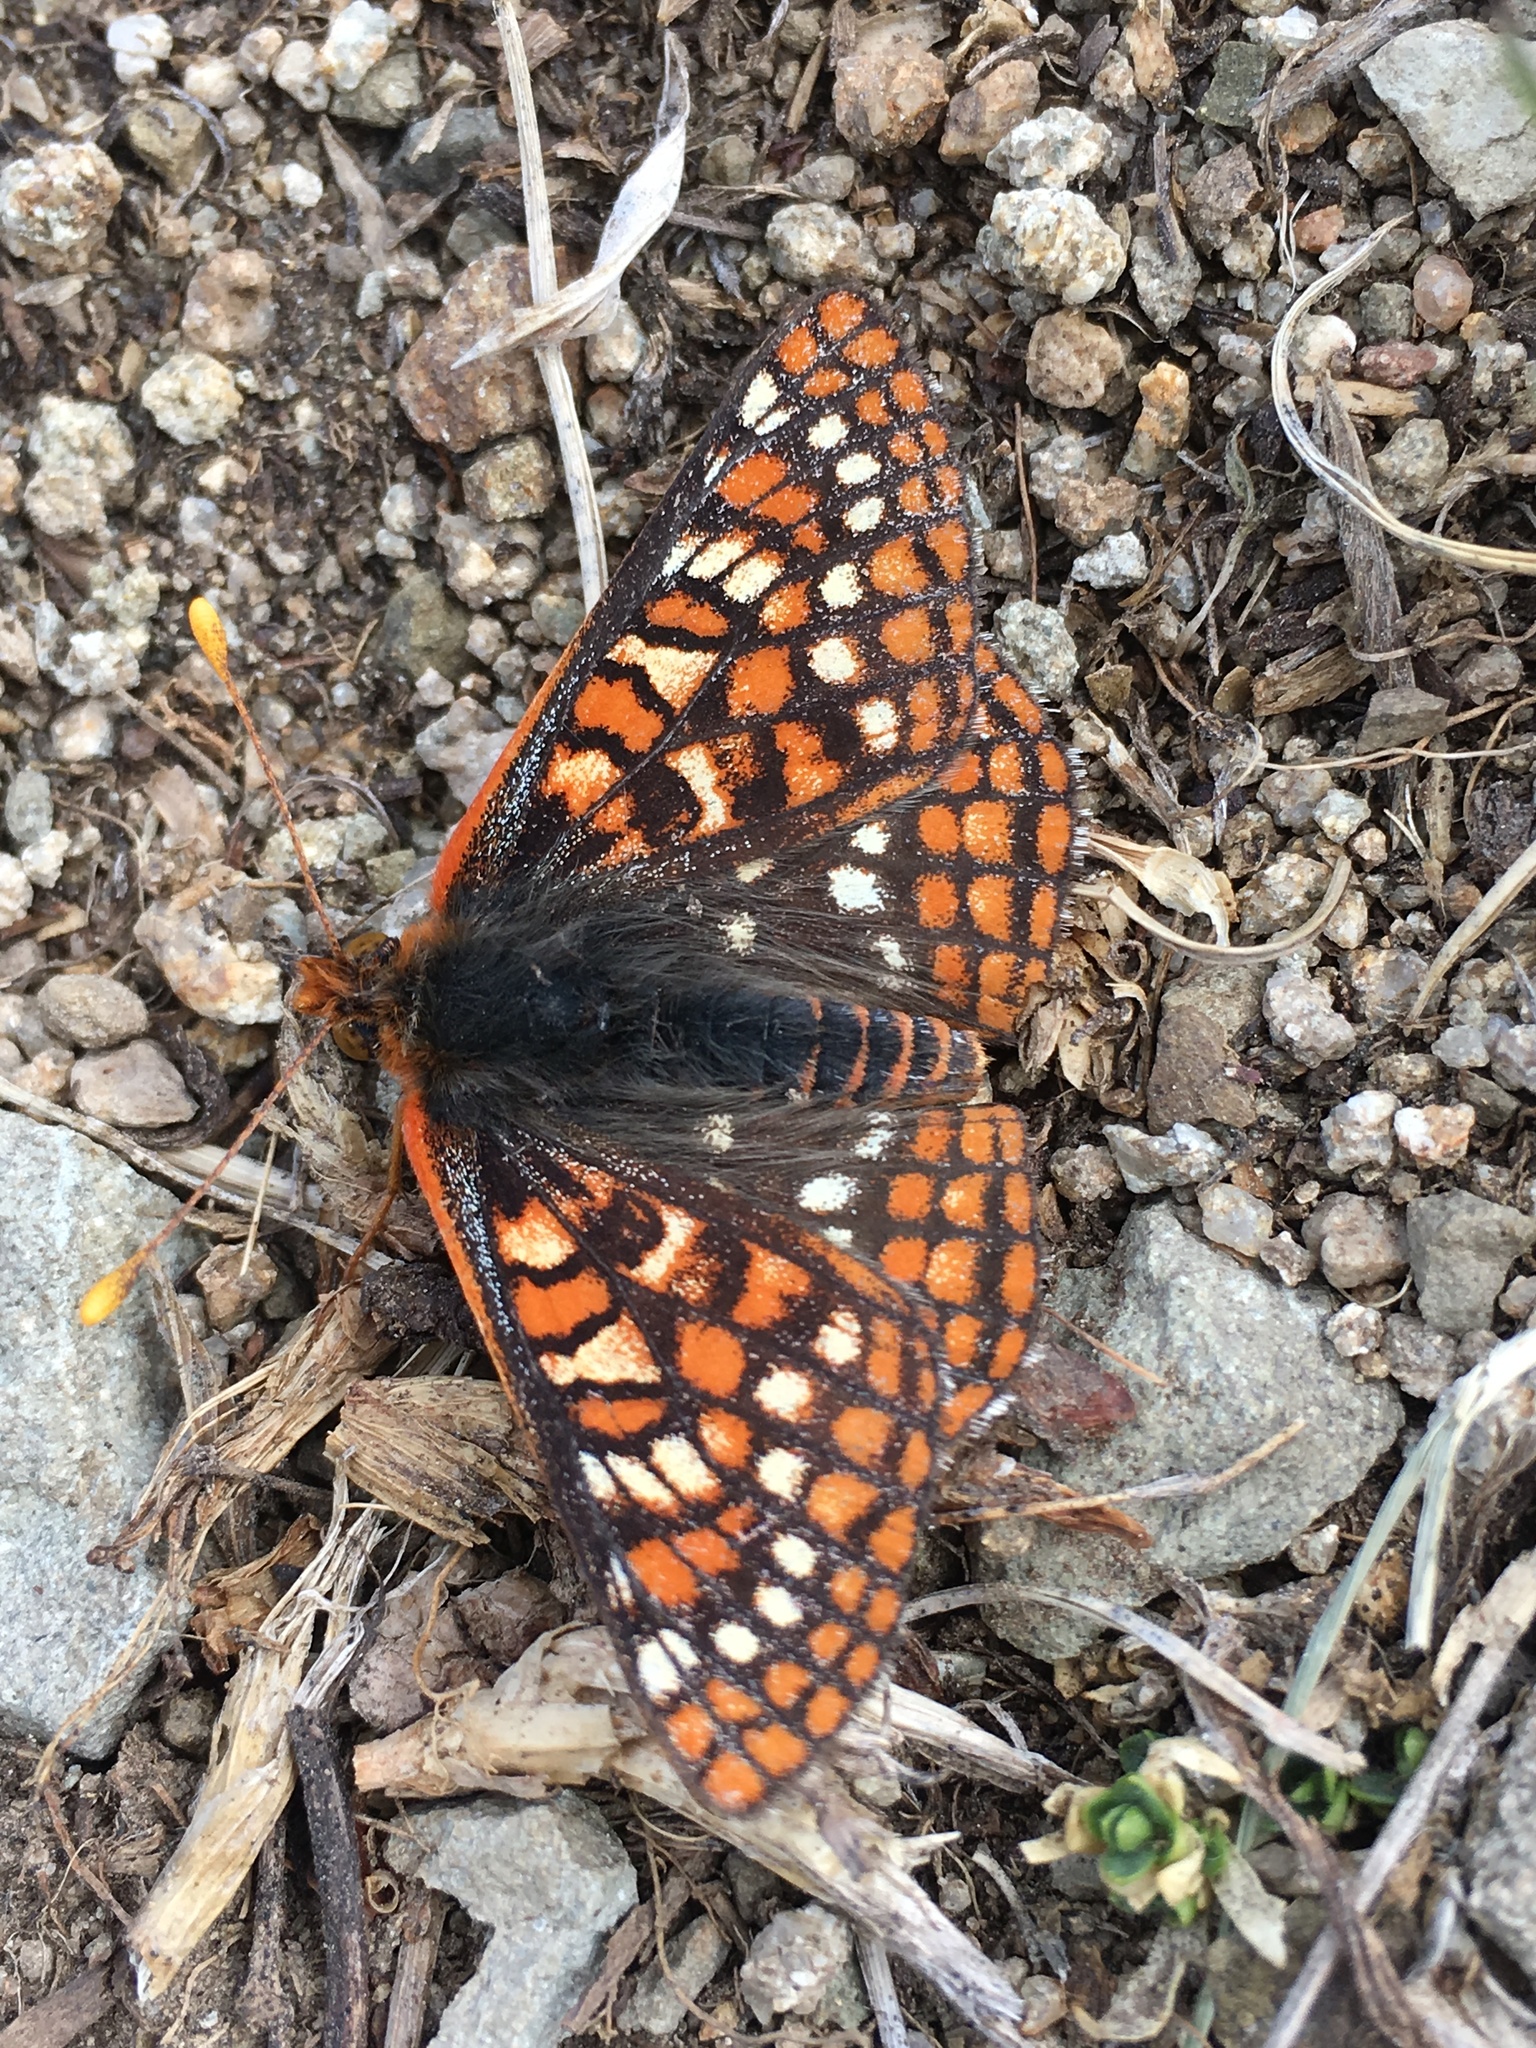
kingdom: Animalia
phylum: Arthropoda
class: Insecta
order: Lepidoptera
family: Nymphalidae
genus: Occidryas
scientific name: Occidryas anicia
